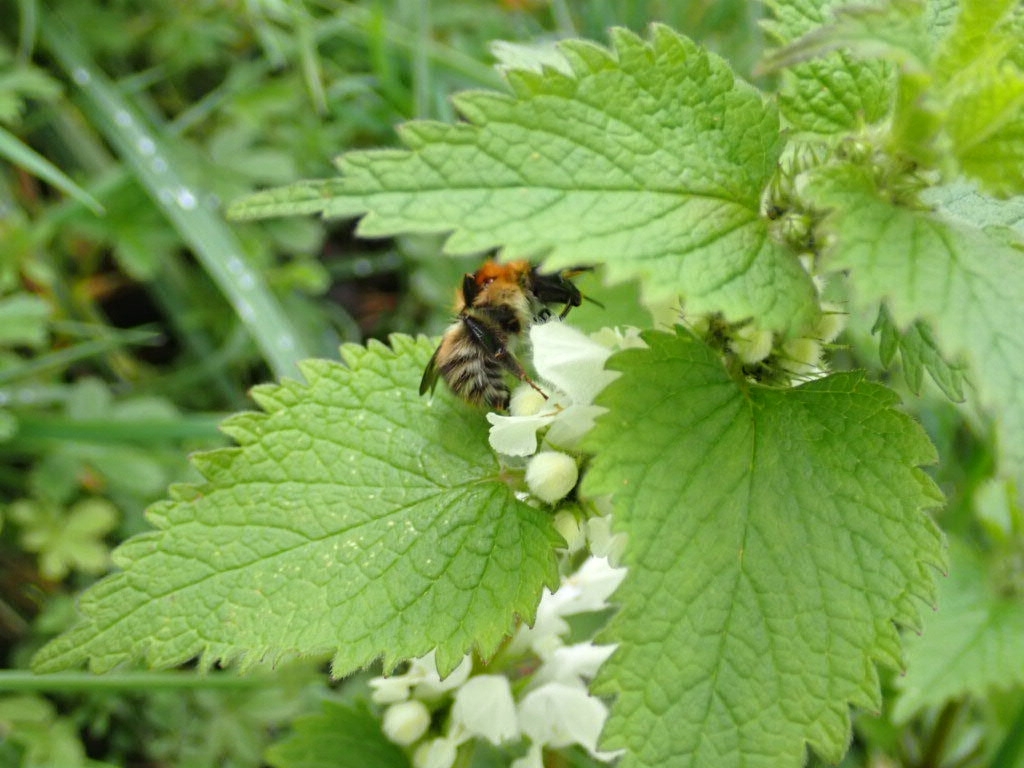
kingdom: Animalia
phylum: Arthropoda
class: Insecta
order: Hymenoptera
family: Apidae
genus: Bombus
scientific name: Bombus pascuorum
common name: Common carder bee
